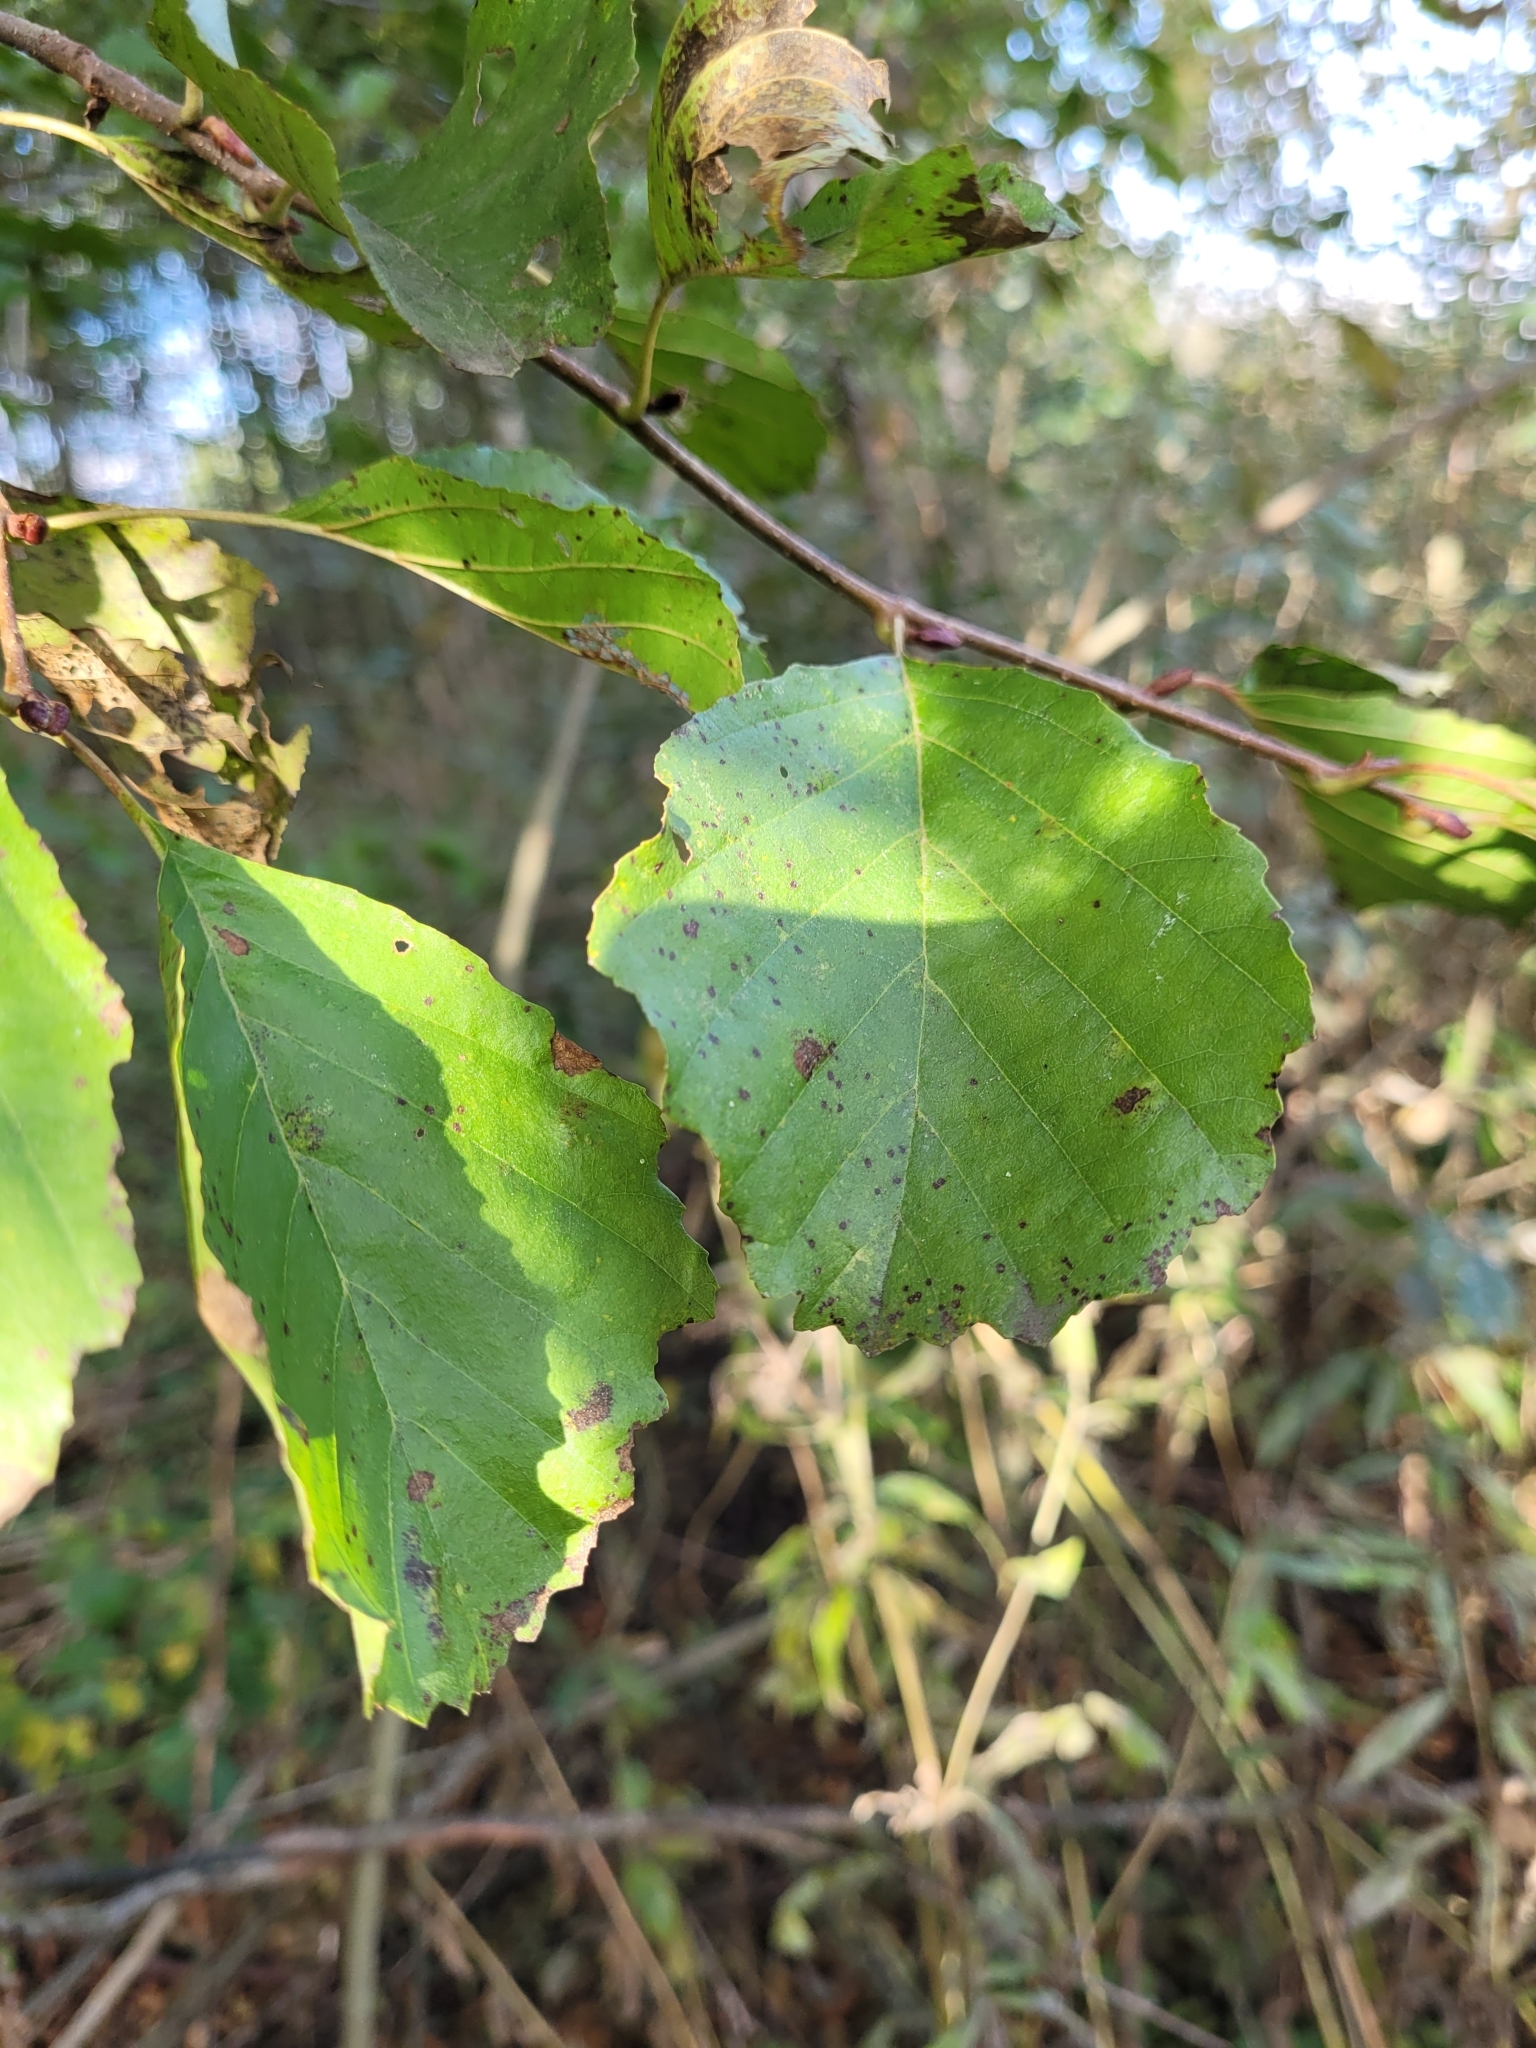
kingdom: Plantae
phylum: Tracheophyta
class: Magnoliopsida
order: Fagales
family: Betulaceae
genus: Alnus
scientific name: Alnus glutinosa
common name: Black alder
